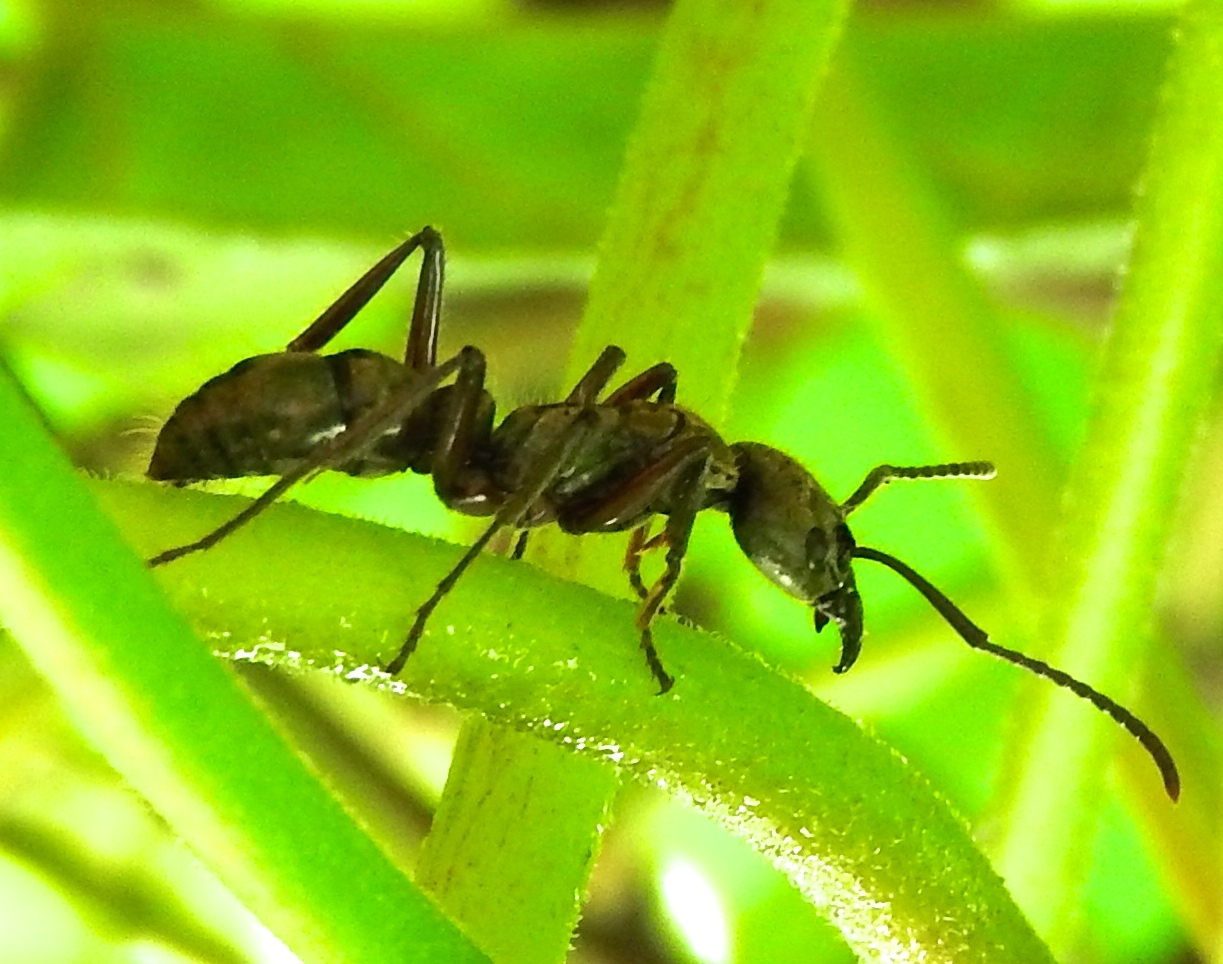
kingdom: Animalia
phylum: Arthropoda
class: Insecta
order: Hymenoptera
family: Formicidae
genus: Pachycondyla
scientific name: Pachycondyla villosa
